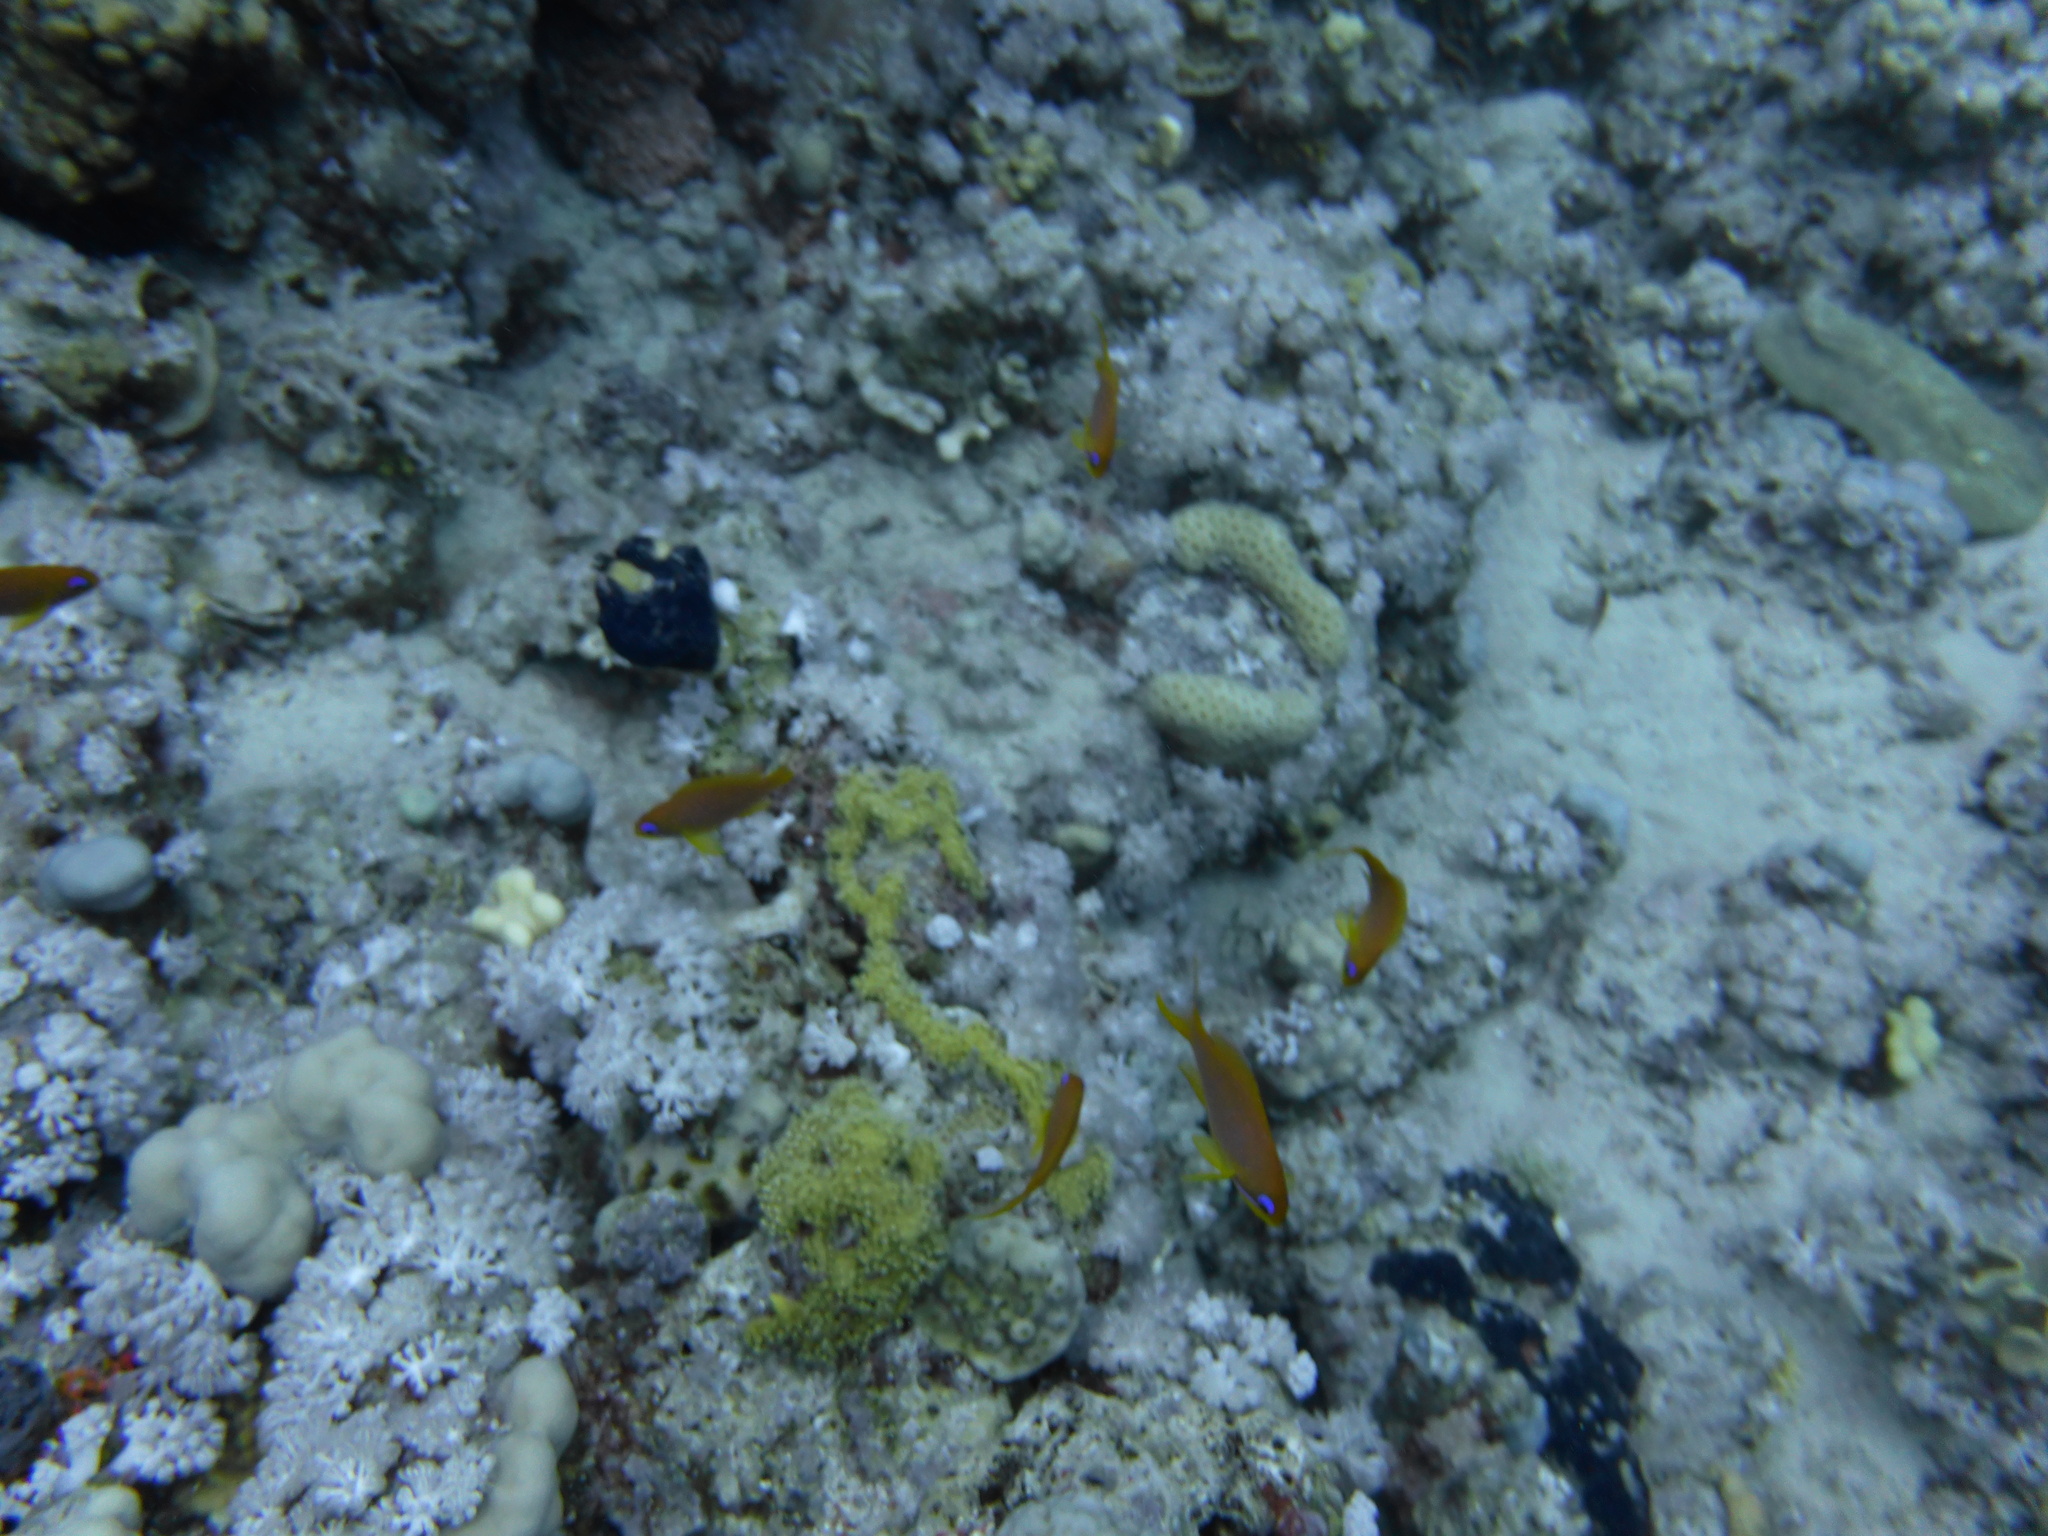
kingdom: Animalia
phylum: Chordata
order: Perciformes
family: Serranidae
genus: Pseudanthias
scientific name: Pseudanthias squamipinnis
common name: Scalefin anthias
